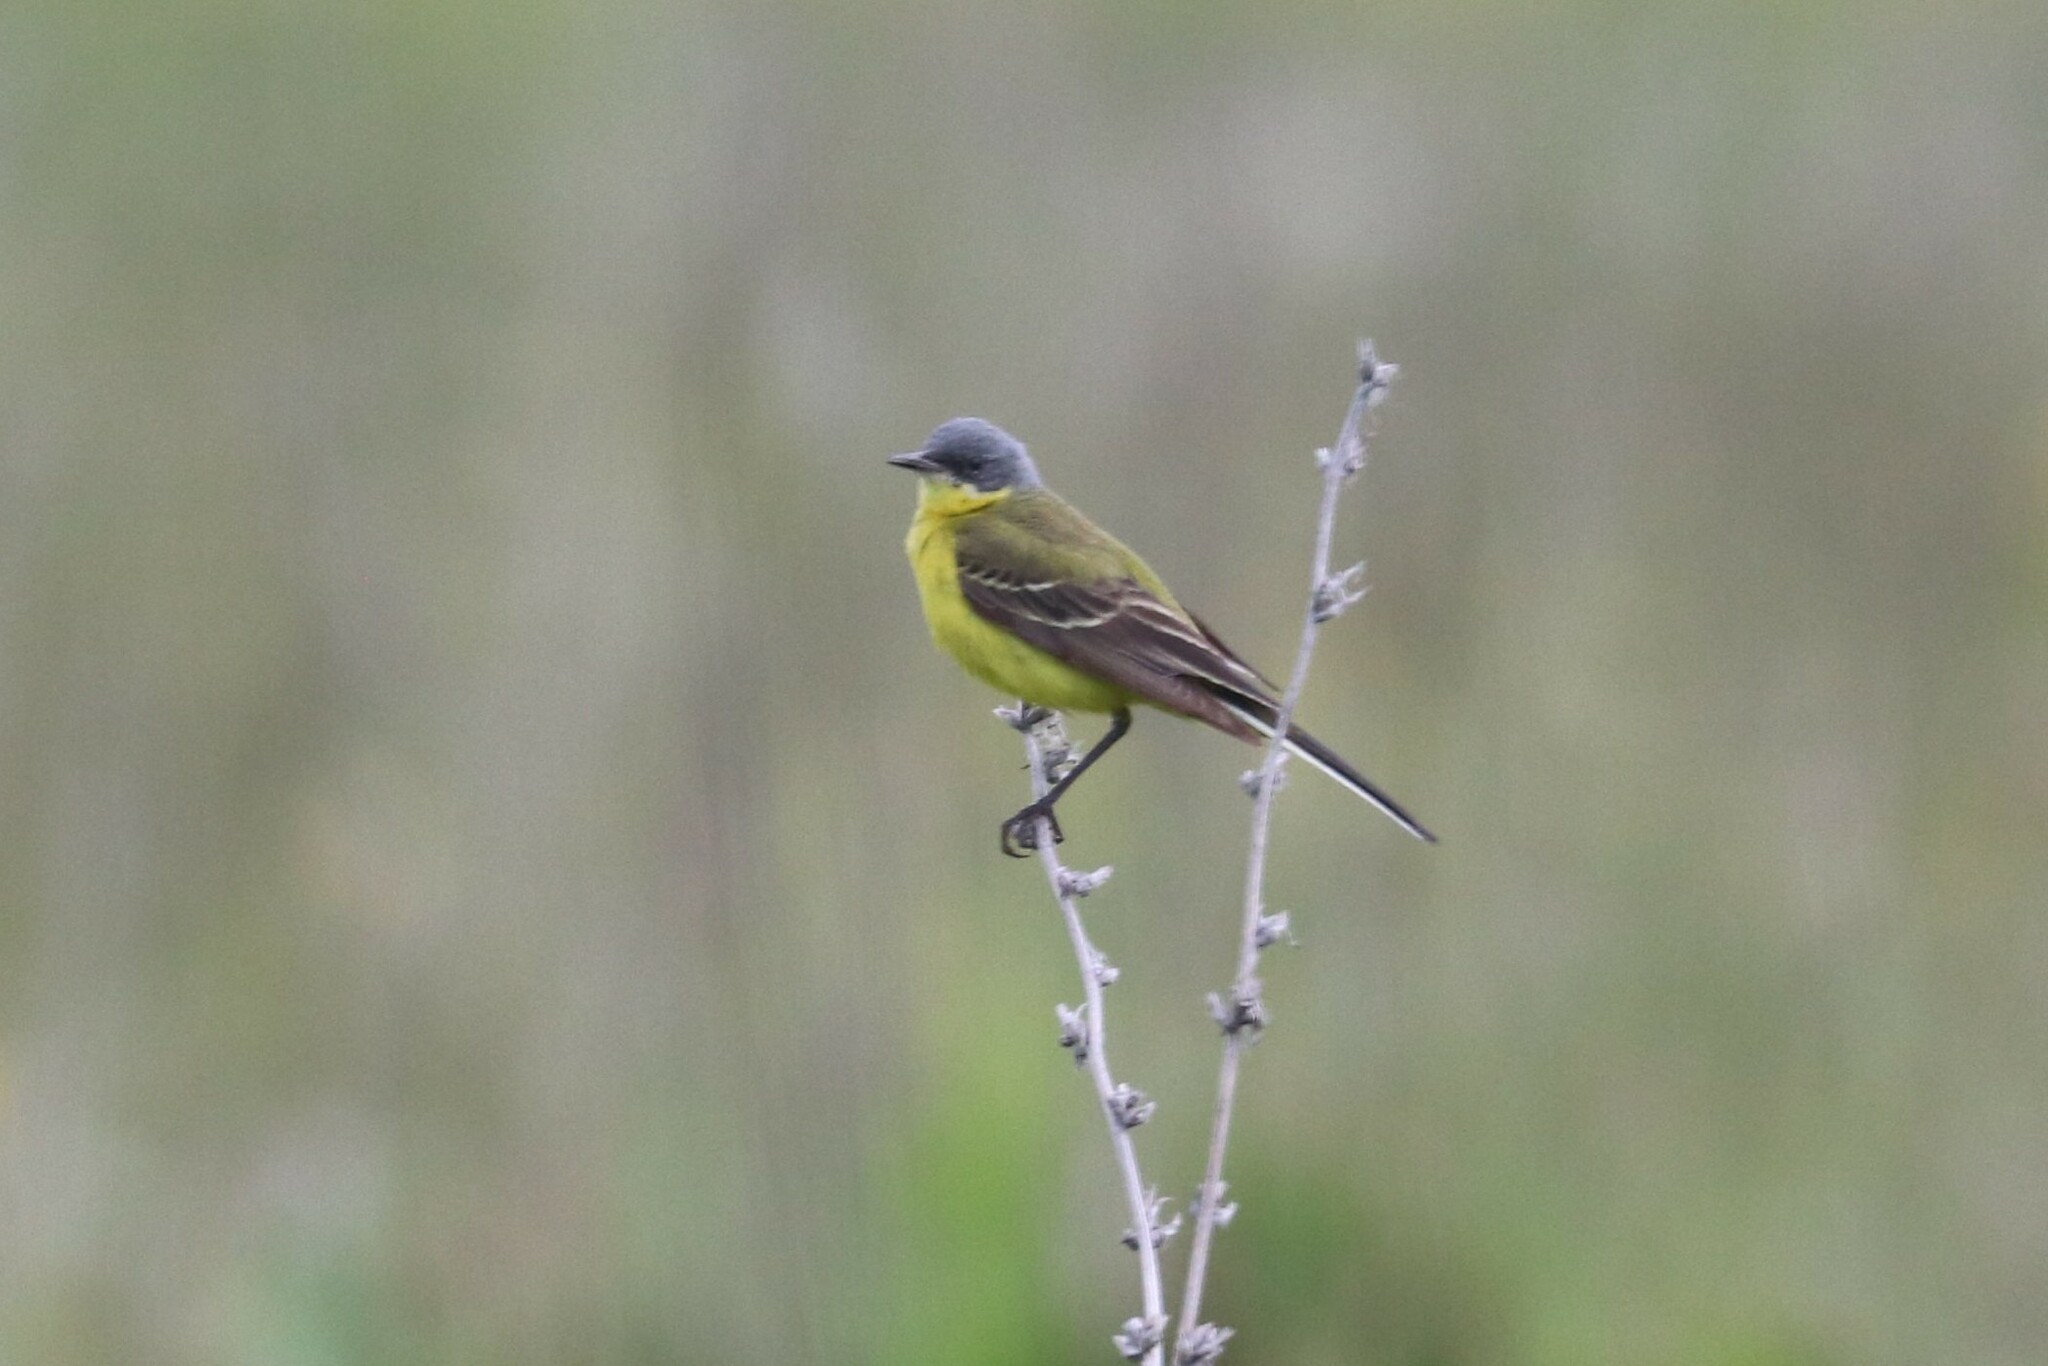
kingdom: Animalia
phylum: Chordata
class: Aves
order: Passeriformes
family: Motacillidae
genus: Motacilla
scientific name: Motacilla flava
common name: Western yellow wagtail
